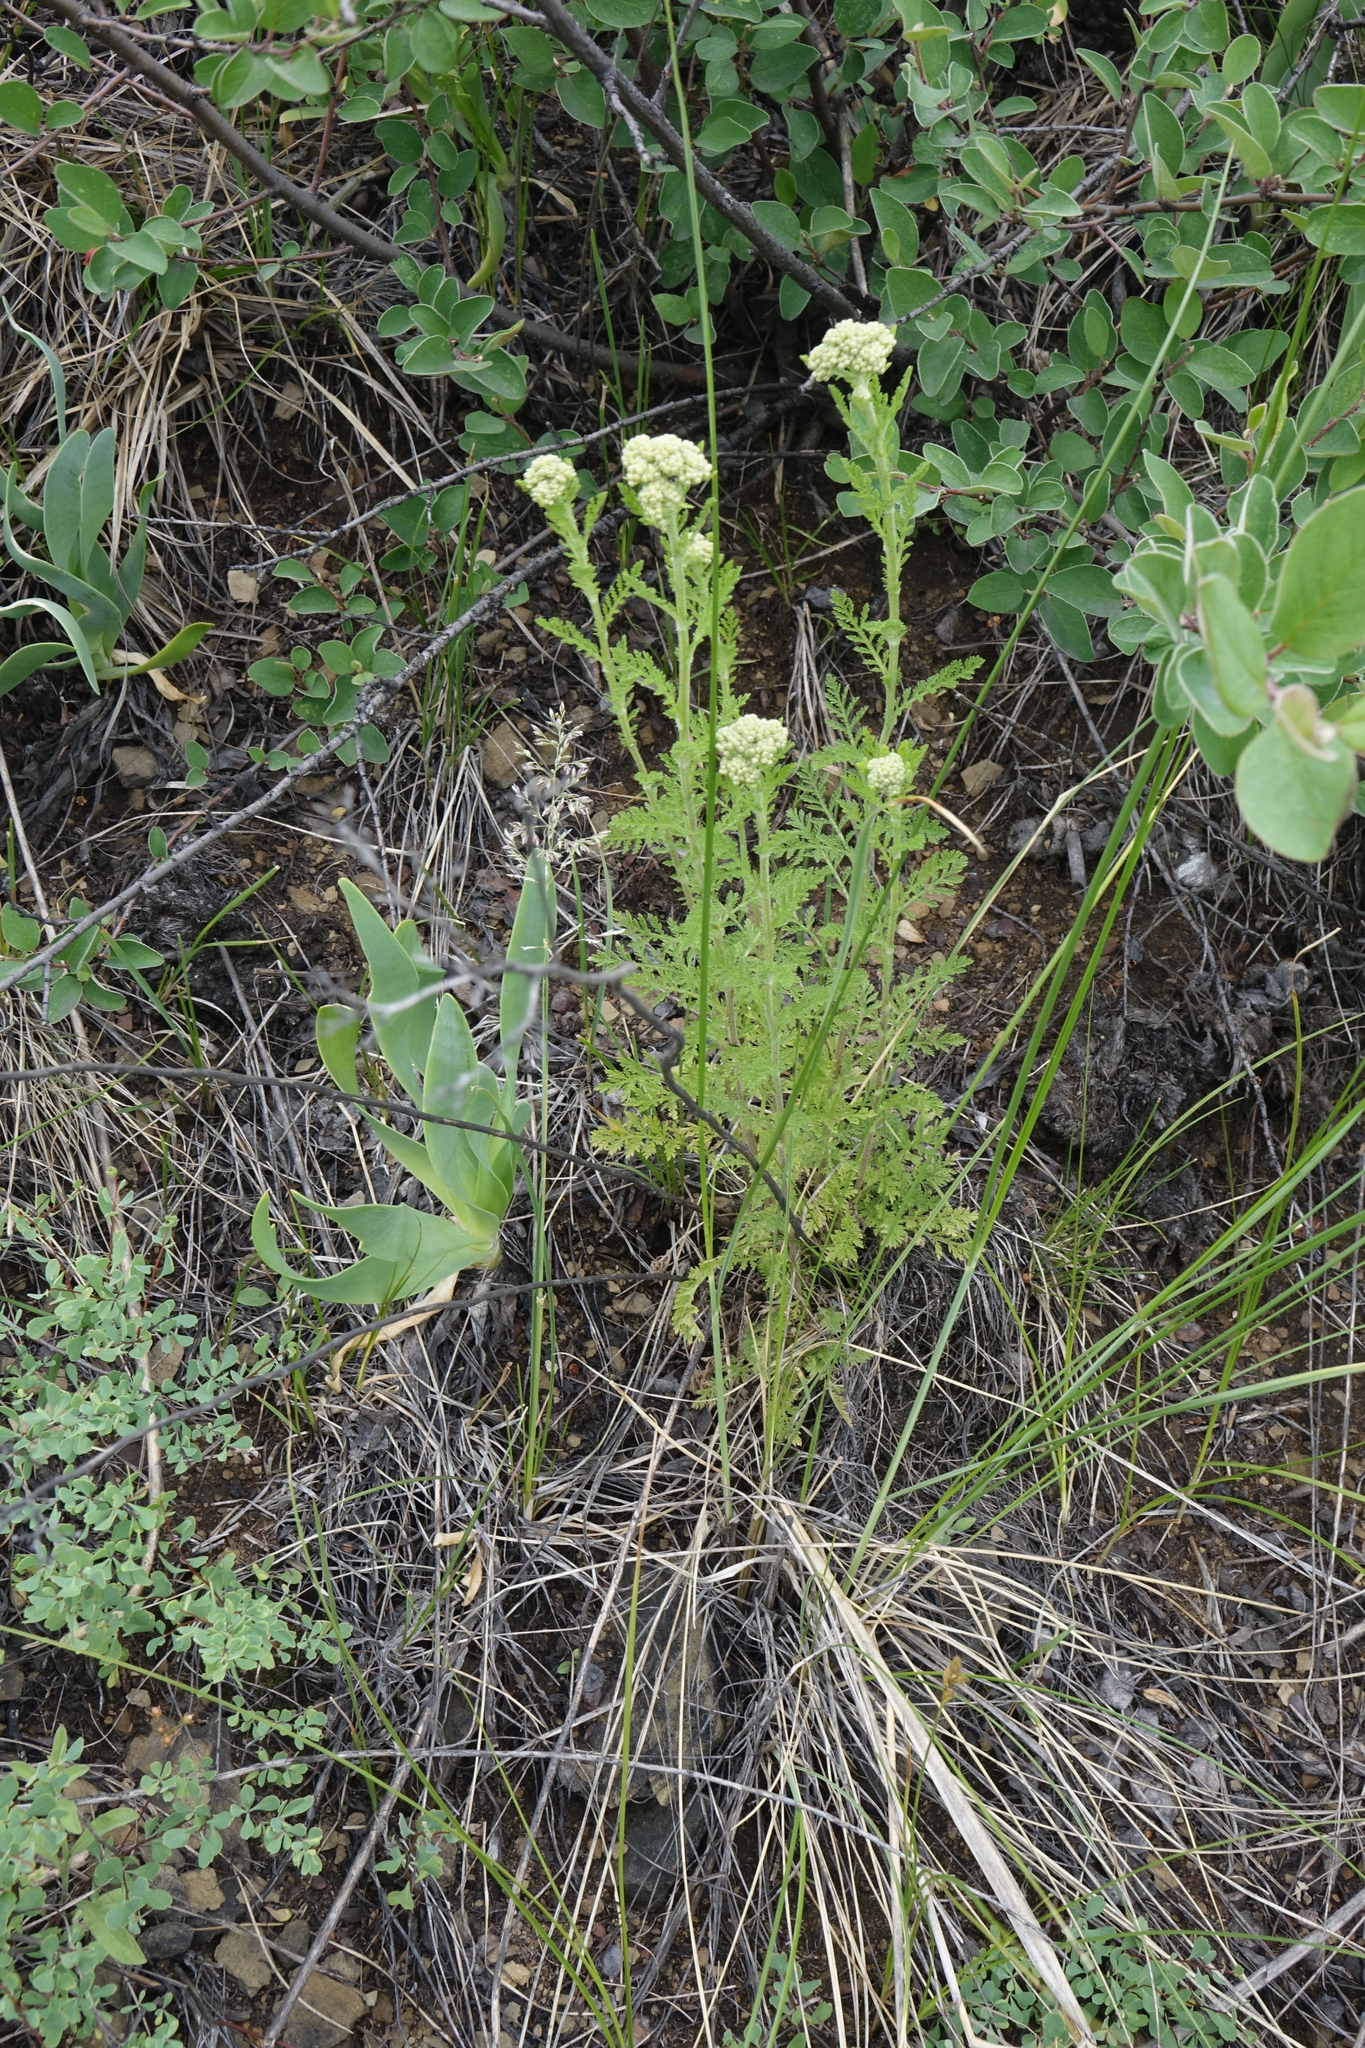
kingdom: Plantae
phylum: Tracheophyta
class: Magnoliopsida
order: Asterales
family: Asteraceae
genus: Achillea
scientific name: Achillea nobilis
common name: Noble yarrow
